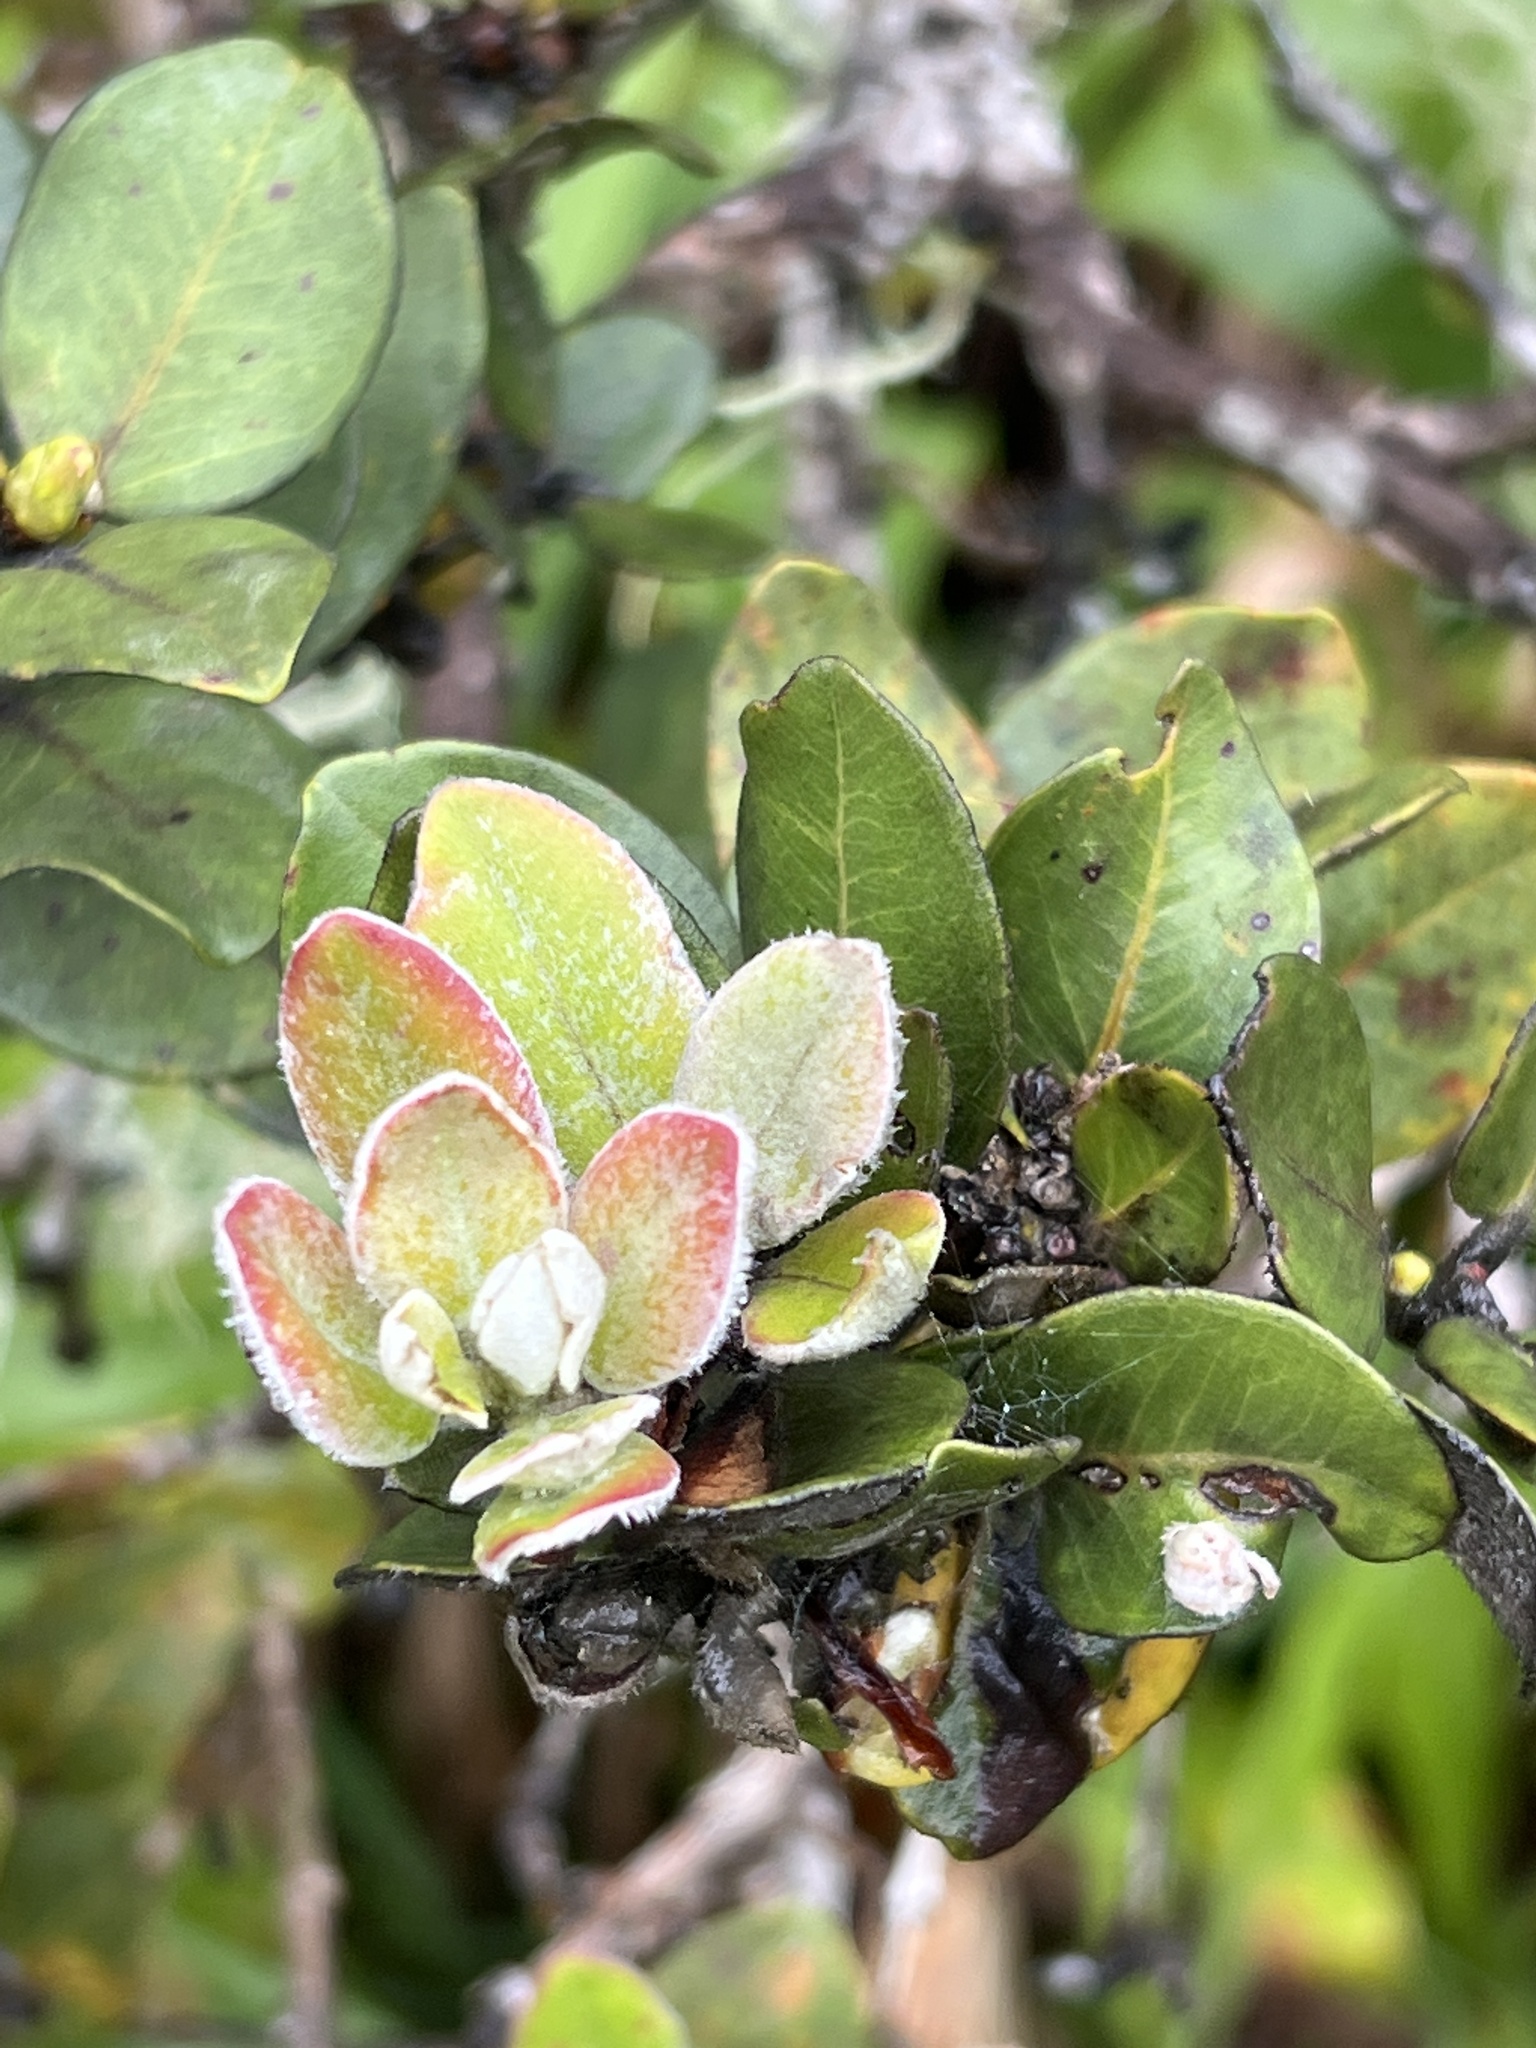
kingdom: Plantae
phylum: Tracheophyta
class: Magnoliopsida
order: Myrtales
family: Myrtaceae
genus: Metrosideros
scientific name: Metrosideros polymorpha
